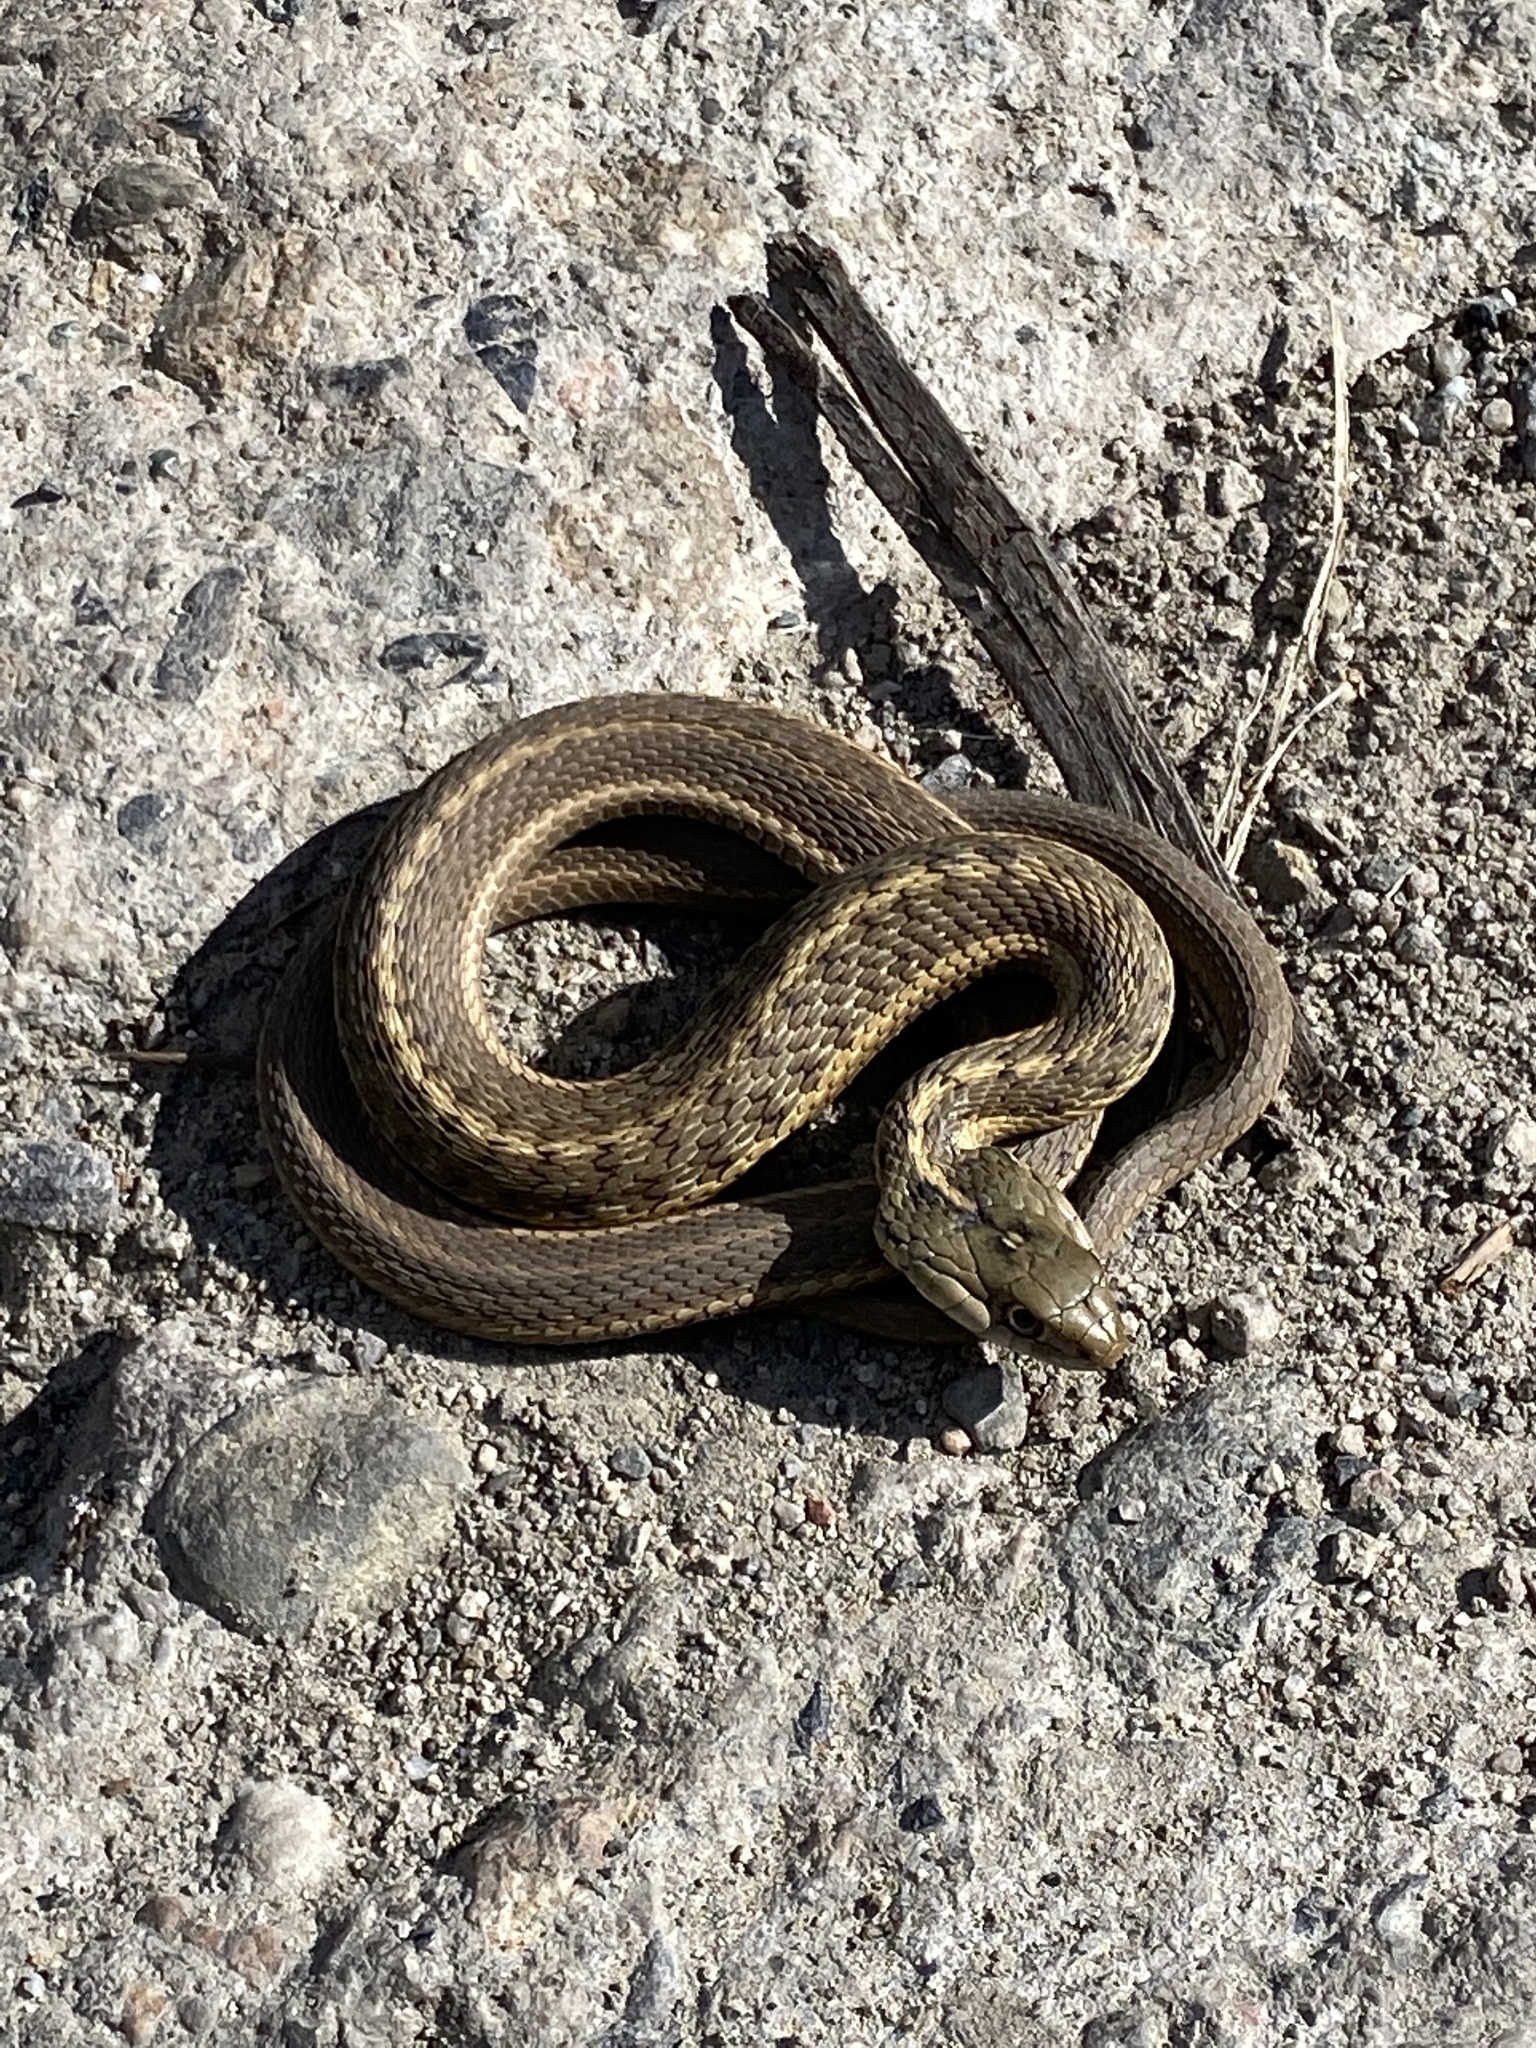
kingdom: Animalia
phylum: Chordata
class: Squamata
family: Colubridae
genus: Thamnophis
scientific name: Thamnophis elegans
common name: Western terrestrial garter snake
